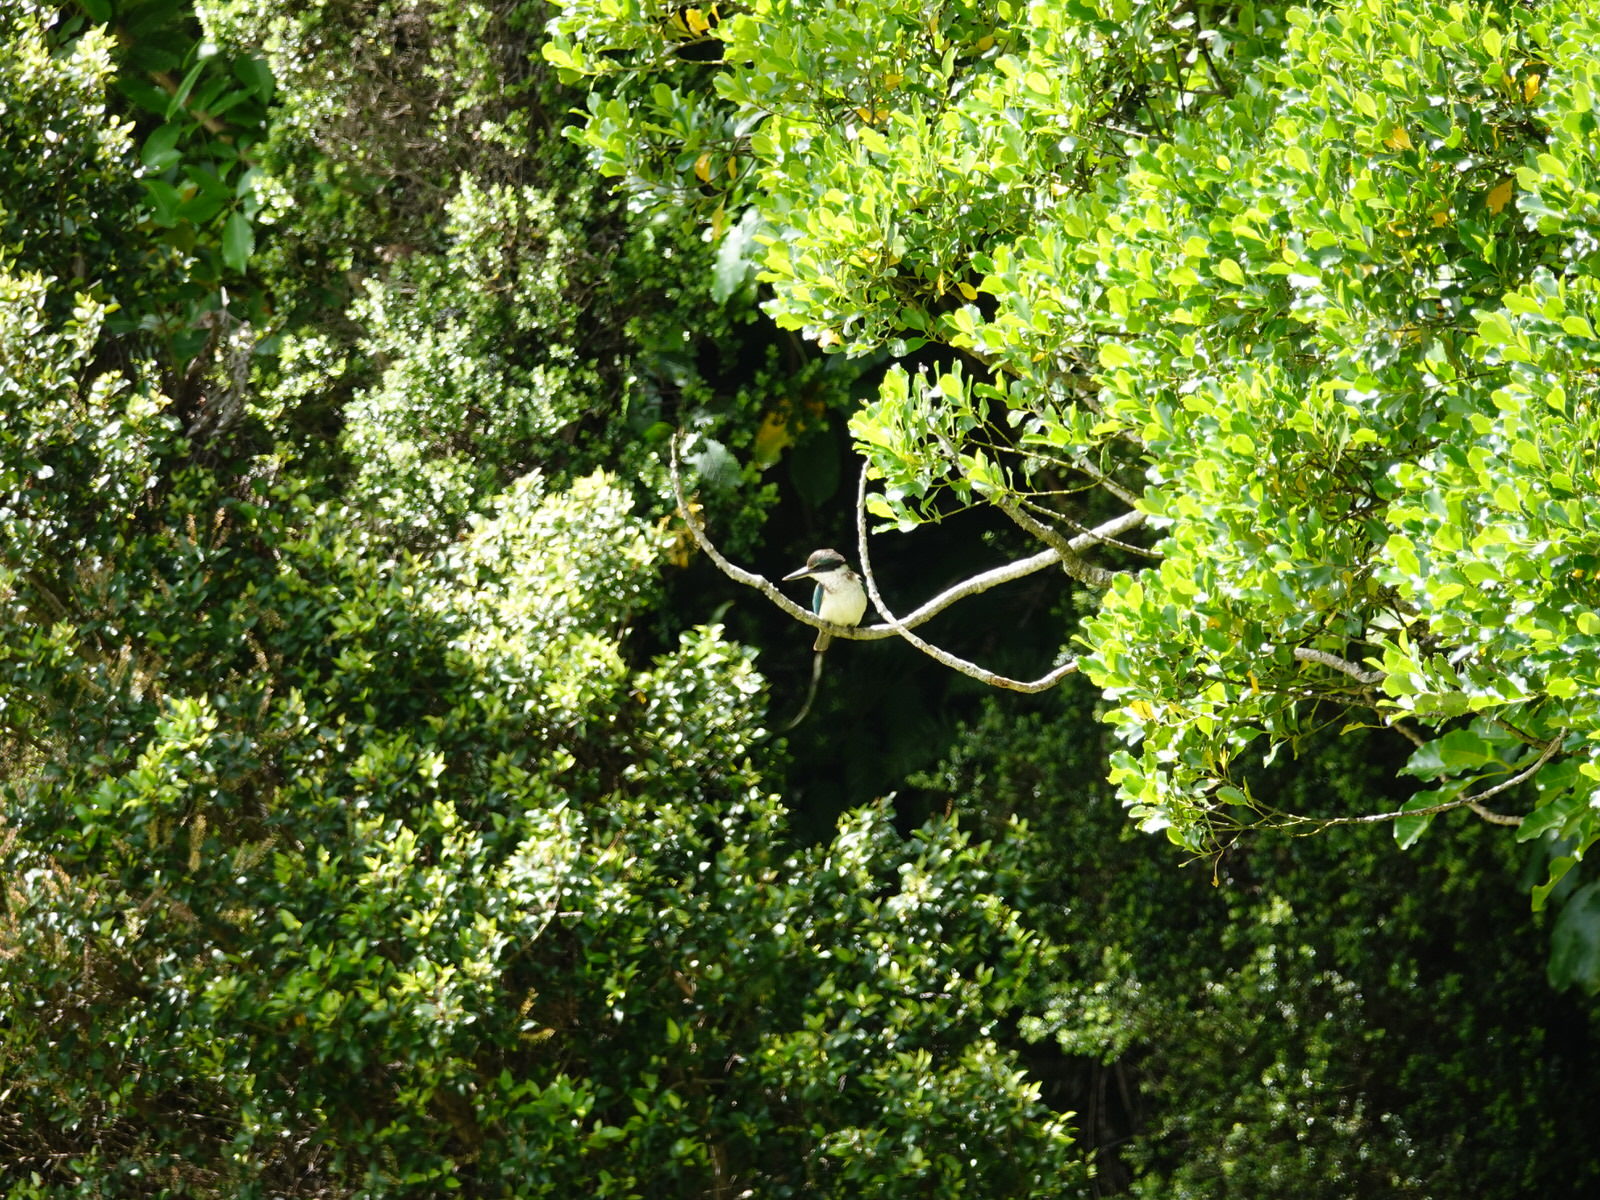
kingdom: Animalia
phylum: Chordata
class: Aves
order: Coraciiformes
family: Alcedinidae
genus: Todiramphus
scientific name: Todiramphus sanctus
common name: Sacred kingfisher
